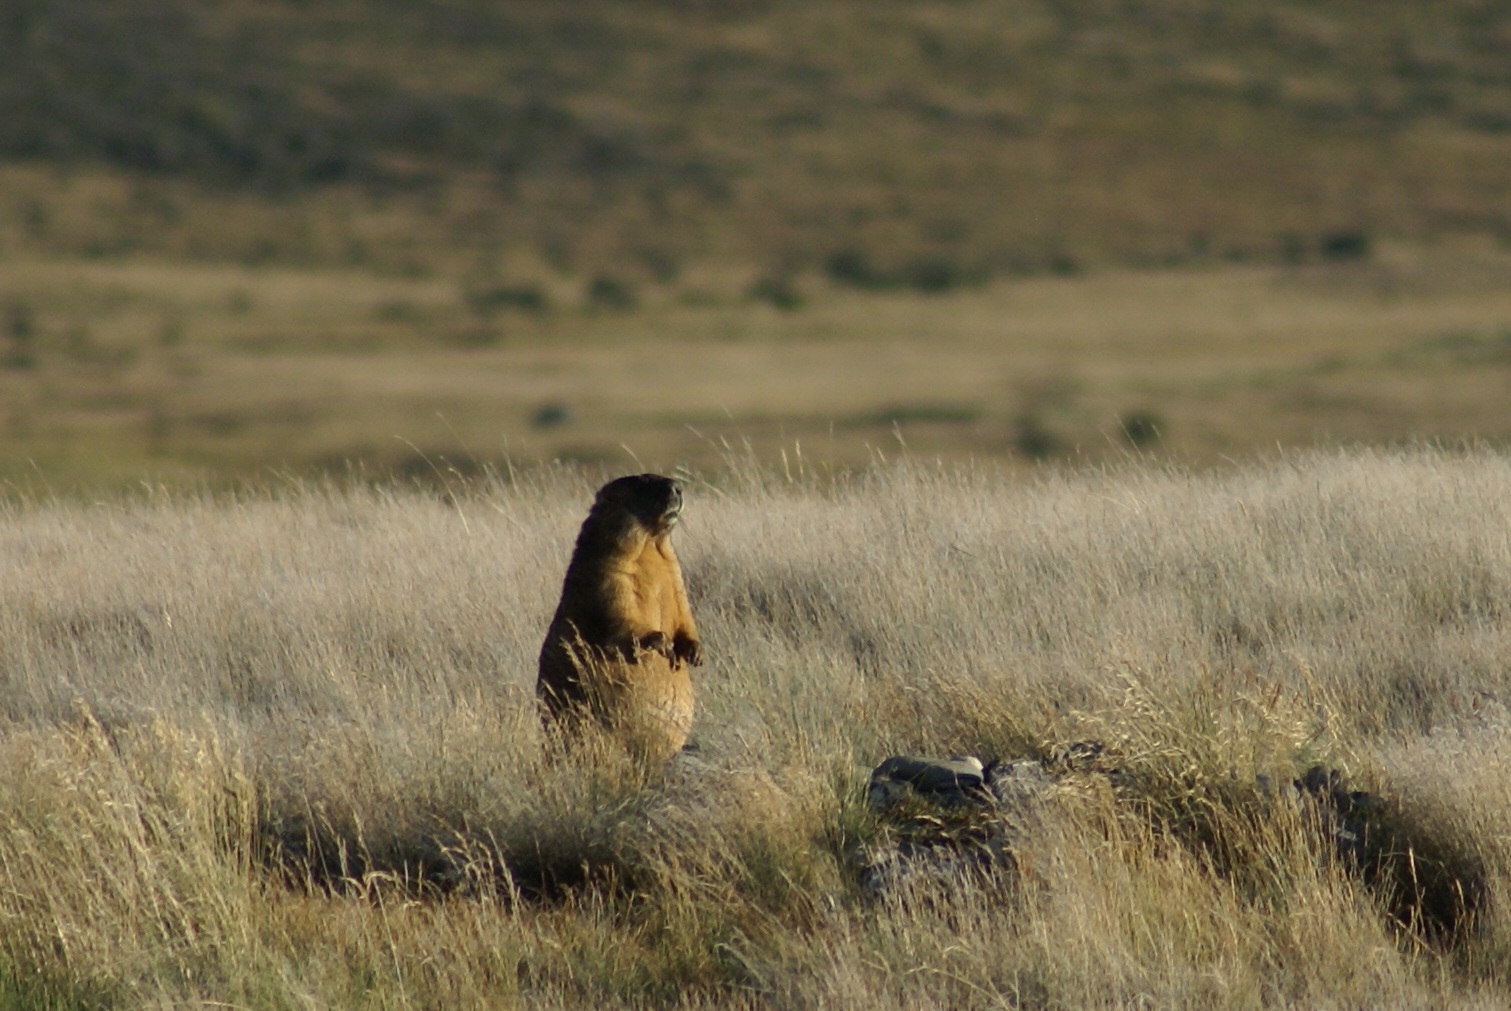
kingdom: Animalia
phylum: Chordata
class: Mammalia
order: Rodentia
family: Sciuridae
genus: Marmota
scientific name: Marmota baibacina
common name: Gray marmot
